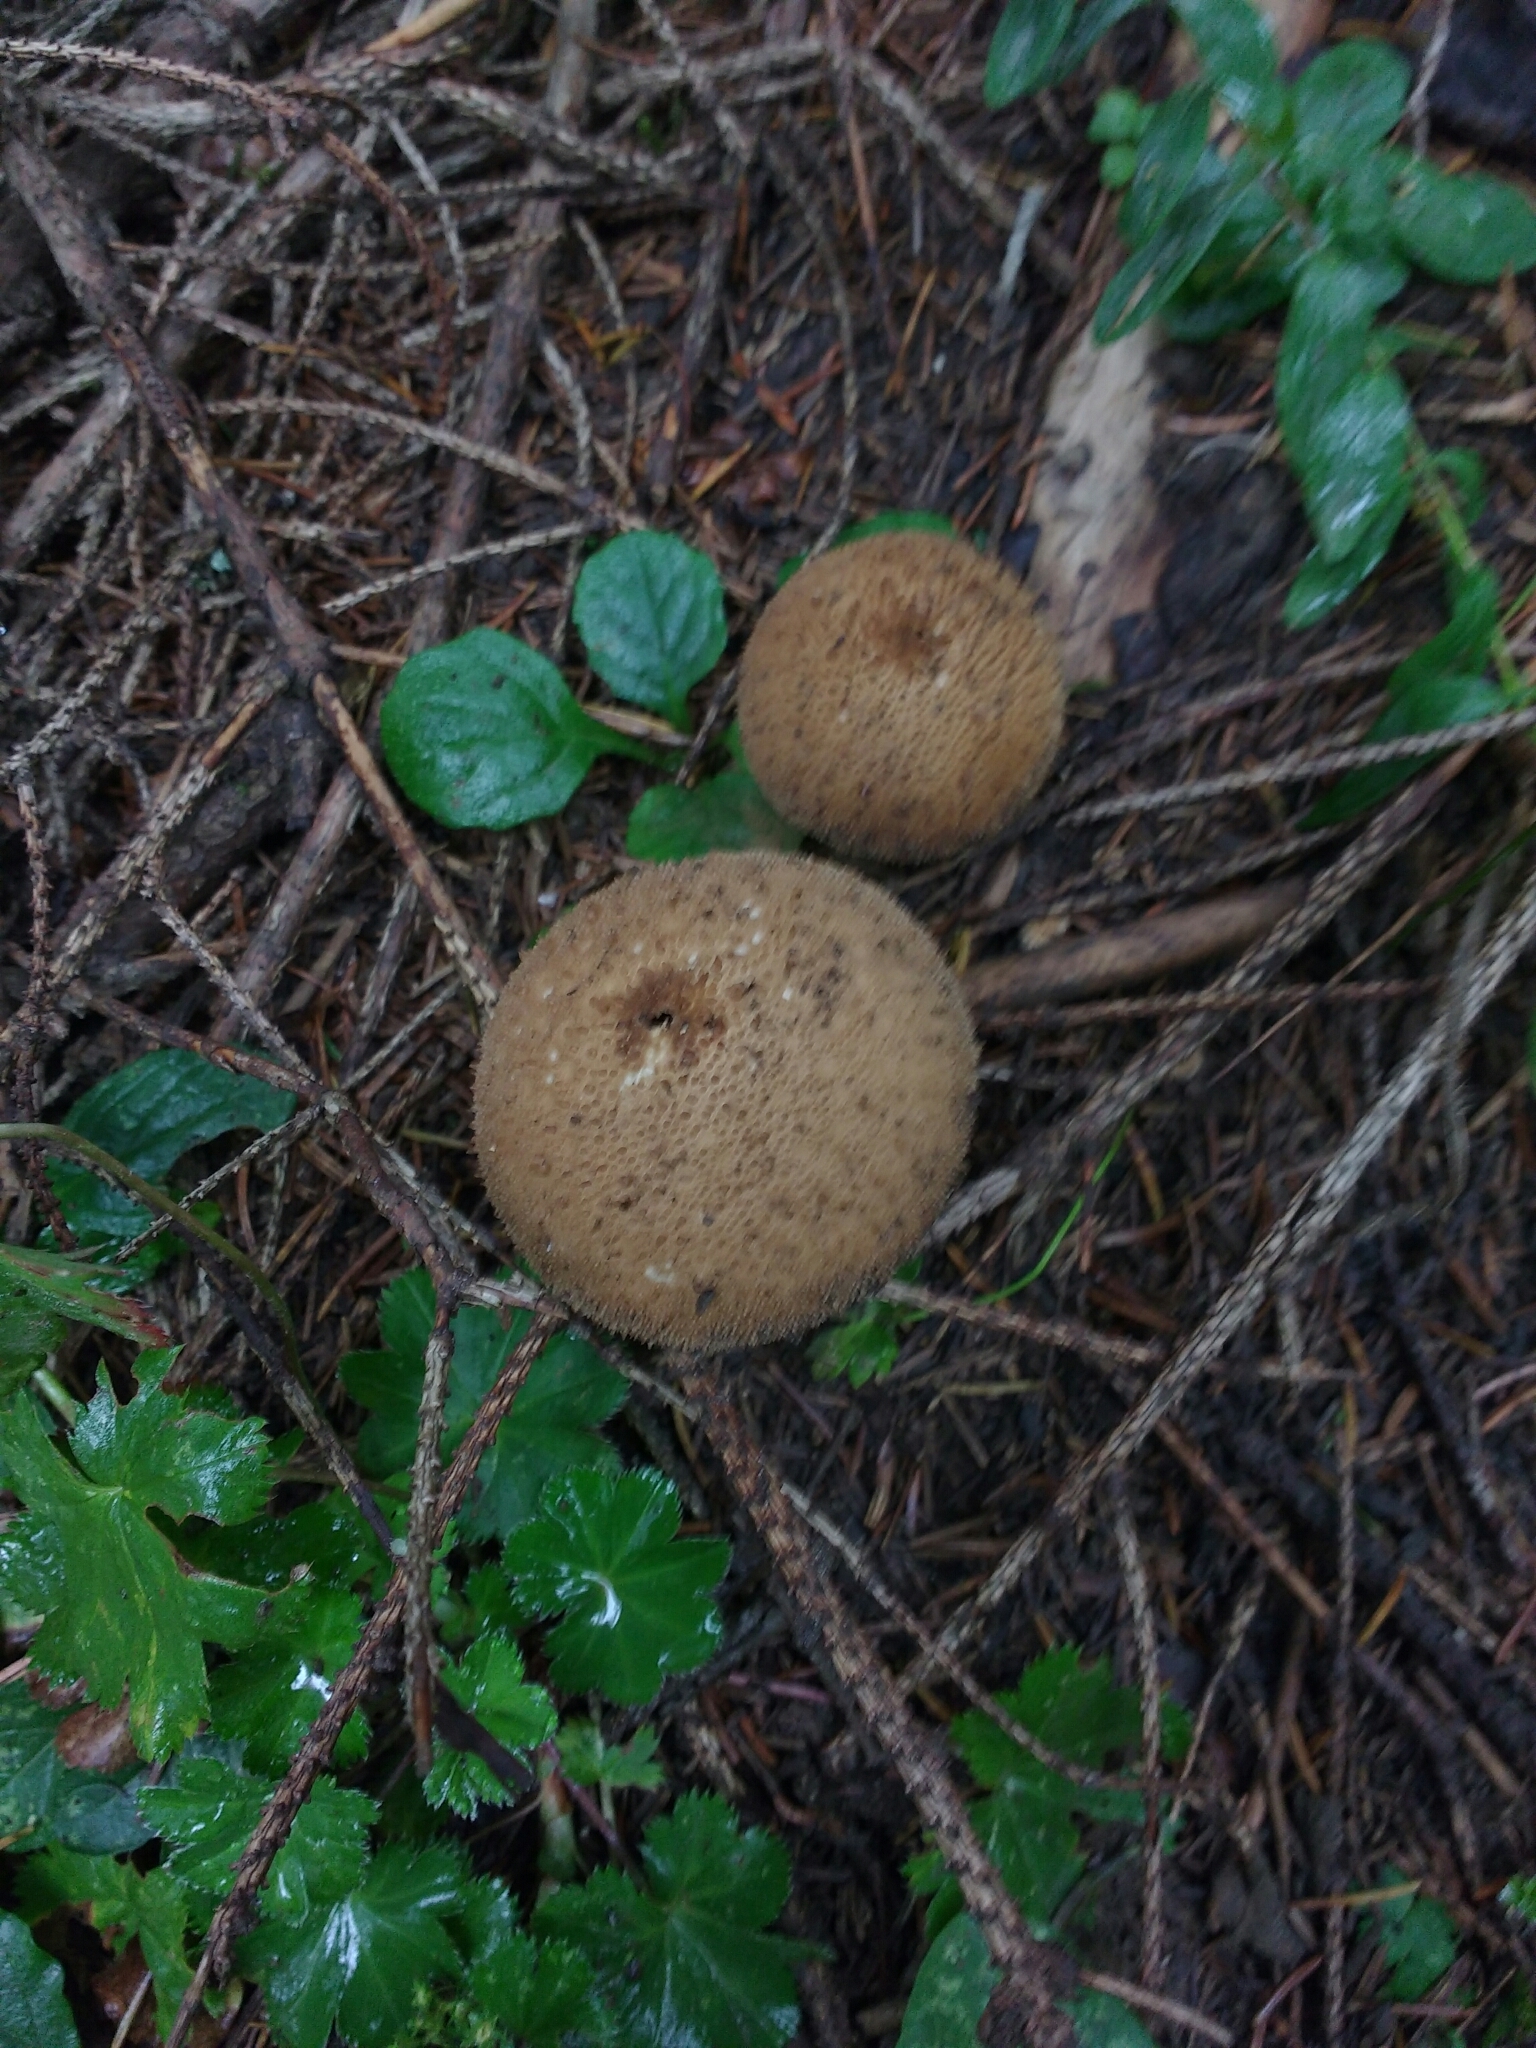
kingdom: Fungi
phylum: Basidiomycota
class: Agaricomycetes
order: Agaricales
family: Lycoperdaceae
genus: Lycoperdon
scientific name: Lycoperdon nigrescens
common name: Blackish puffball
